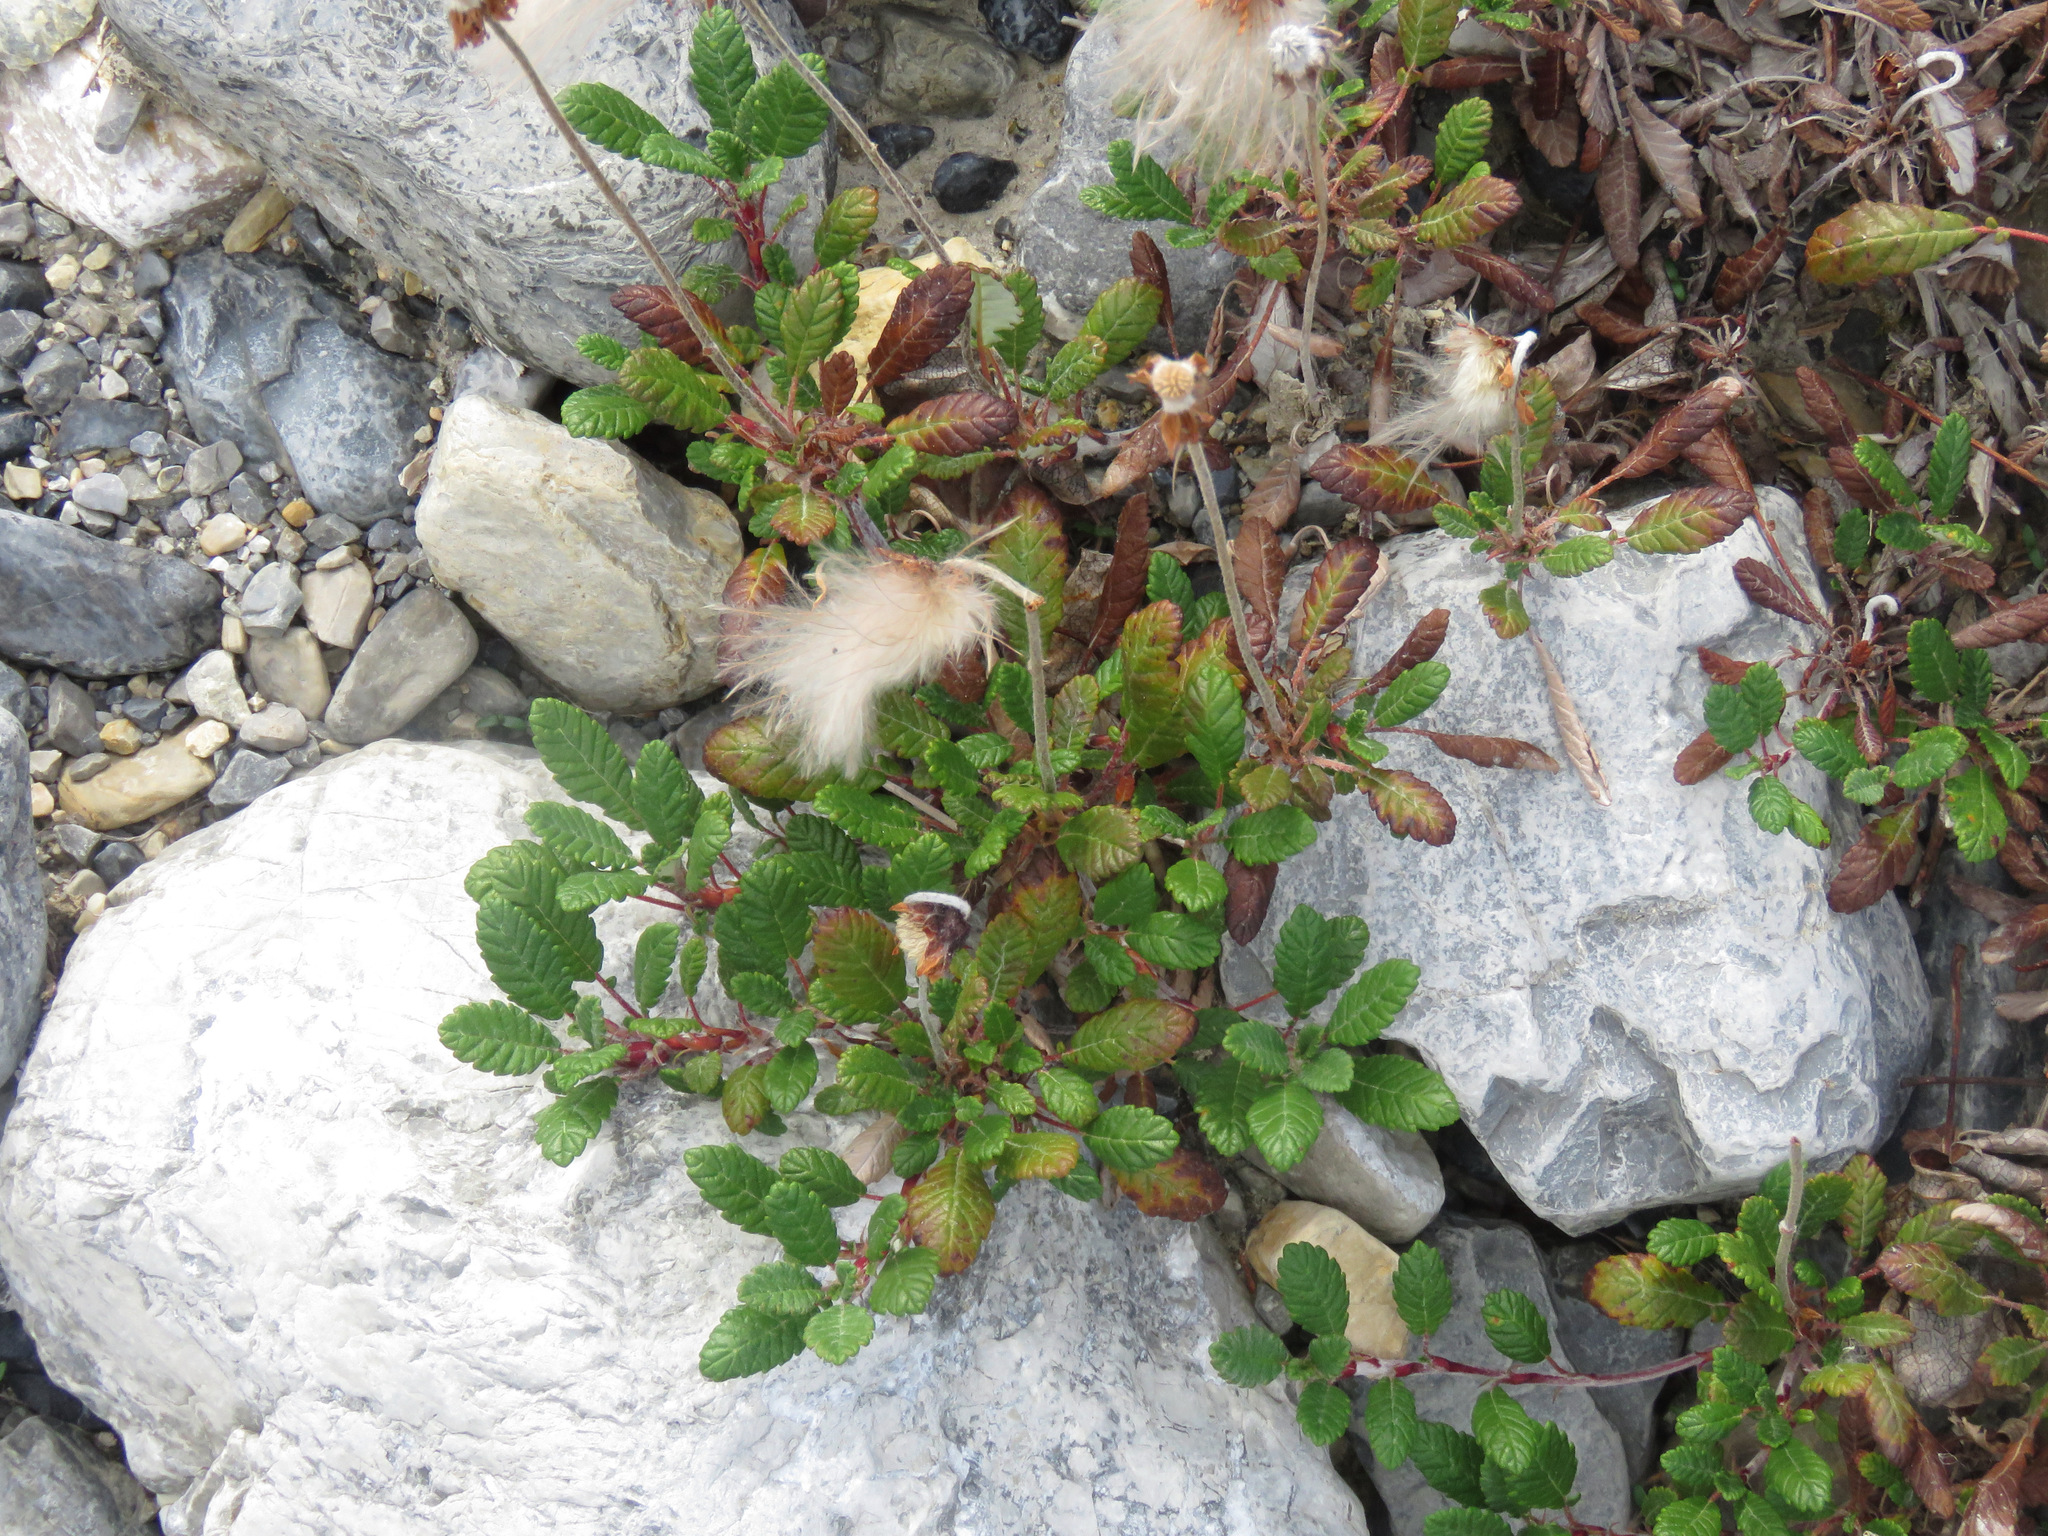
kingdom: Plantae
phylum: Tracheophyta
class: Magnoliopsida
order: Rosales
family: Rosaceae
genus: Dryas
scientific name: Dryas drummondii
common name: Drummond's dryad
